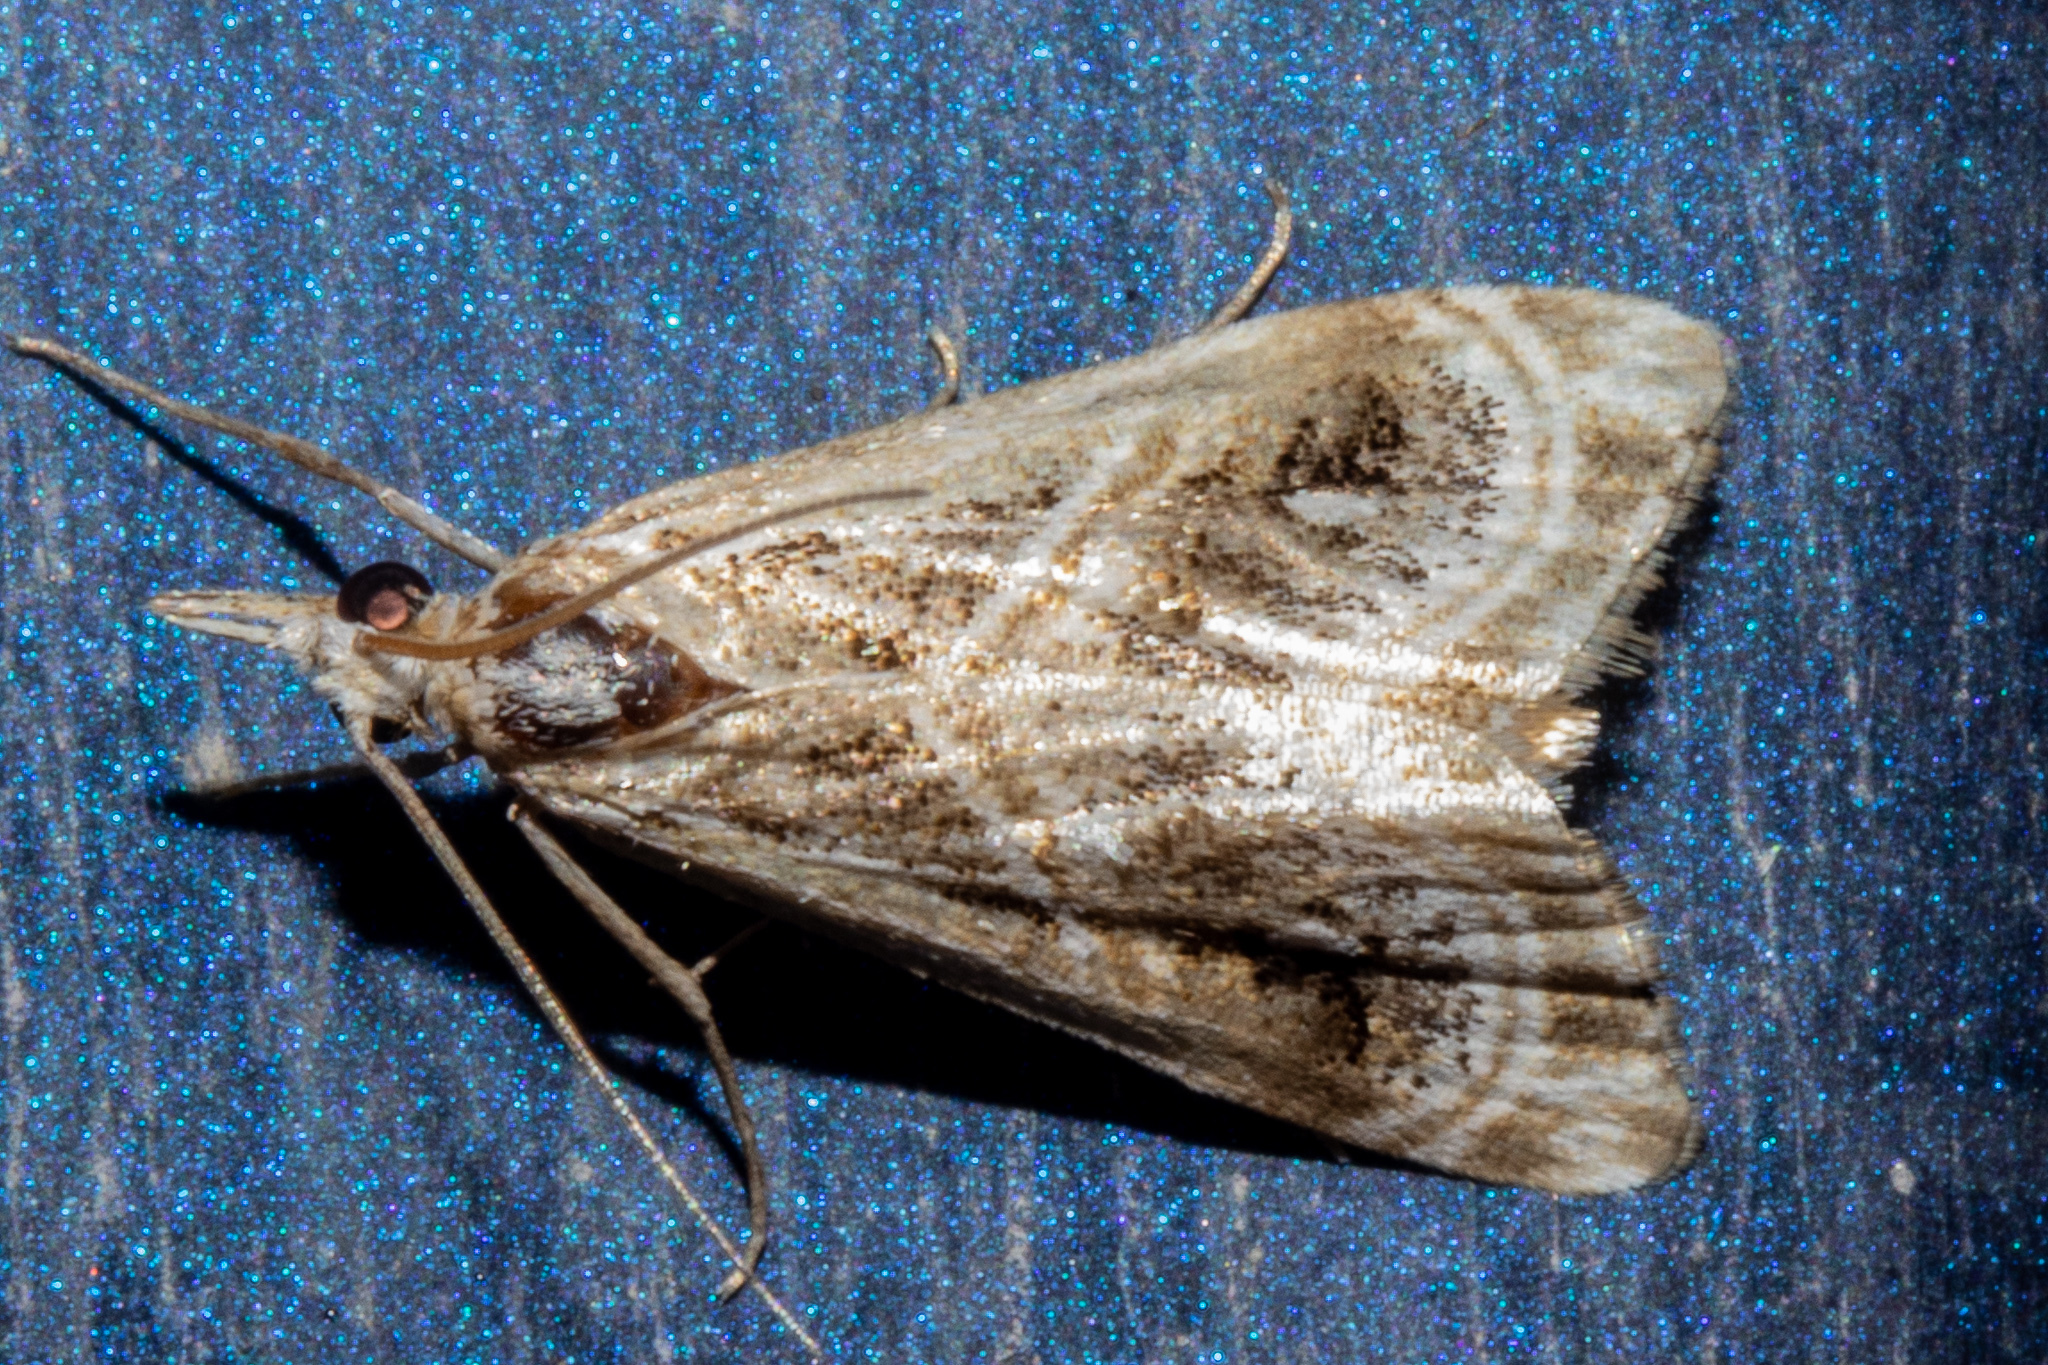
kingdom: Animalia
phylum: Arthropoda
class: Insecta
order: Lepidoptera
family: Crambidae
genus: Gadira
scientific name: Gadira acerella
